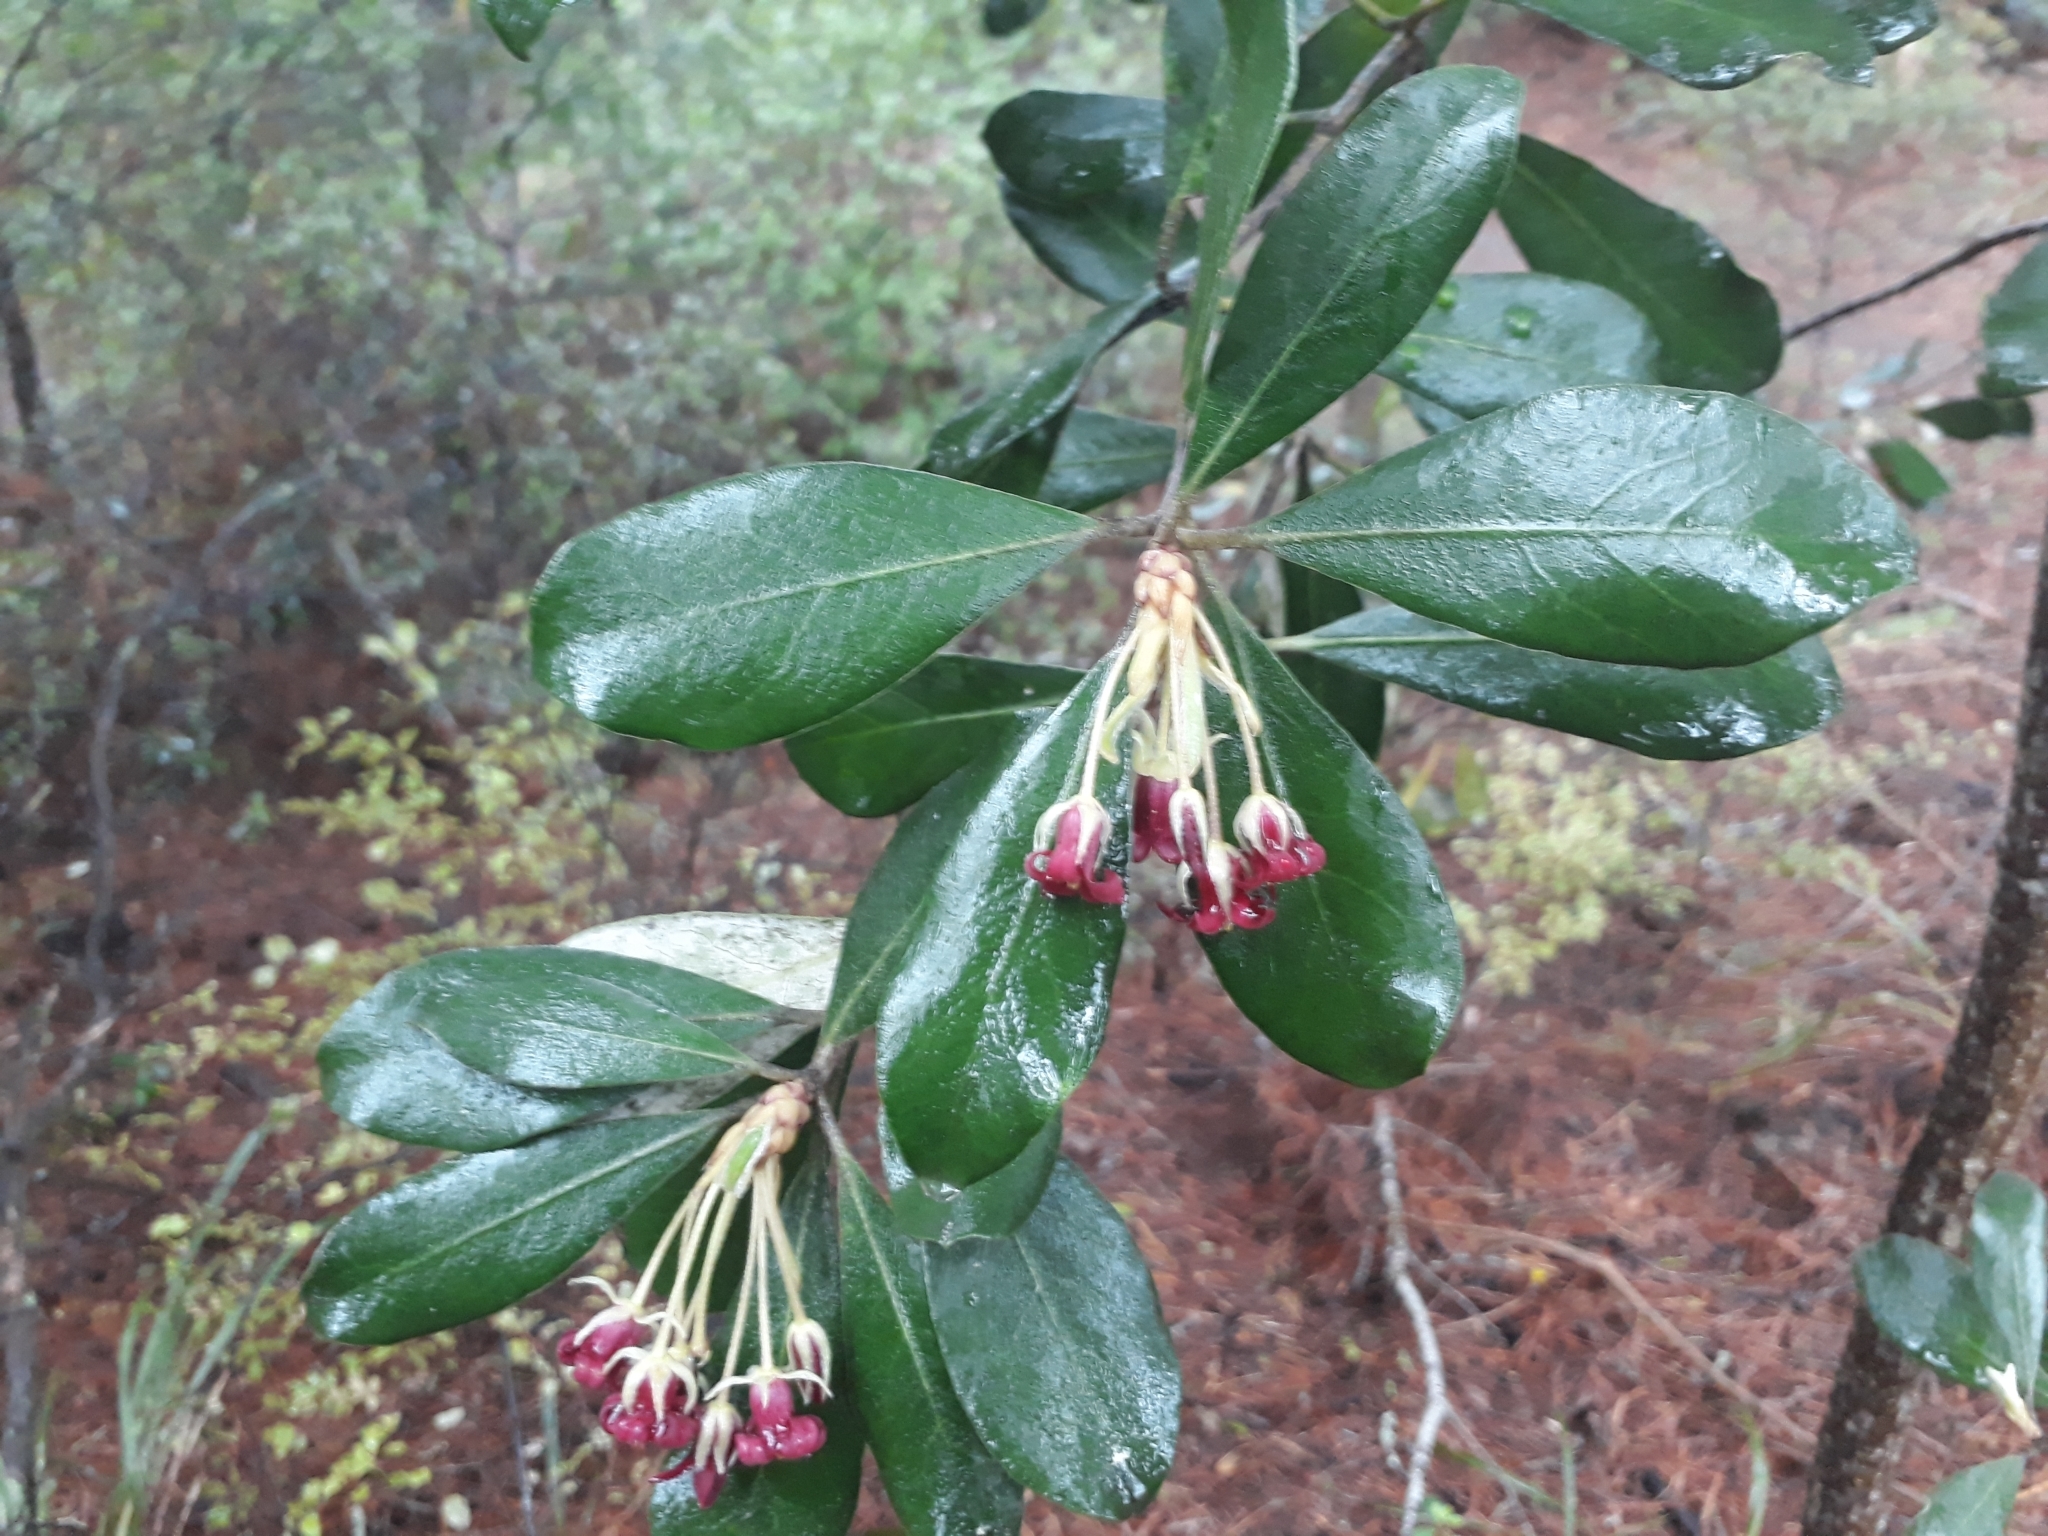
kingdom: Plantae
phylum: Tracheophyta
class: Magnoliopsida
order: Apiales
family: Pittosporaceae
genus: Pittosporum
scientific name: Pittosporum crassifolium
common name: Karo
